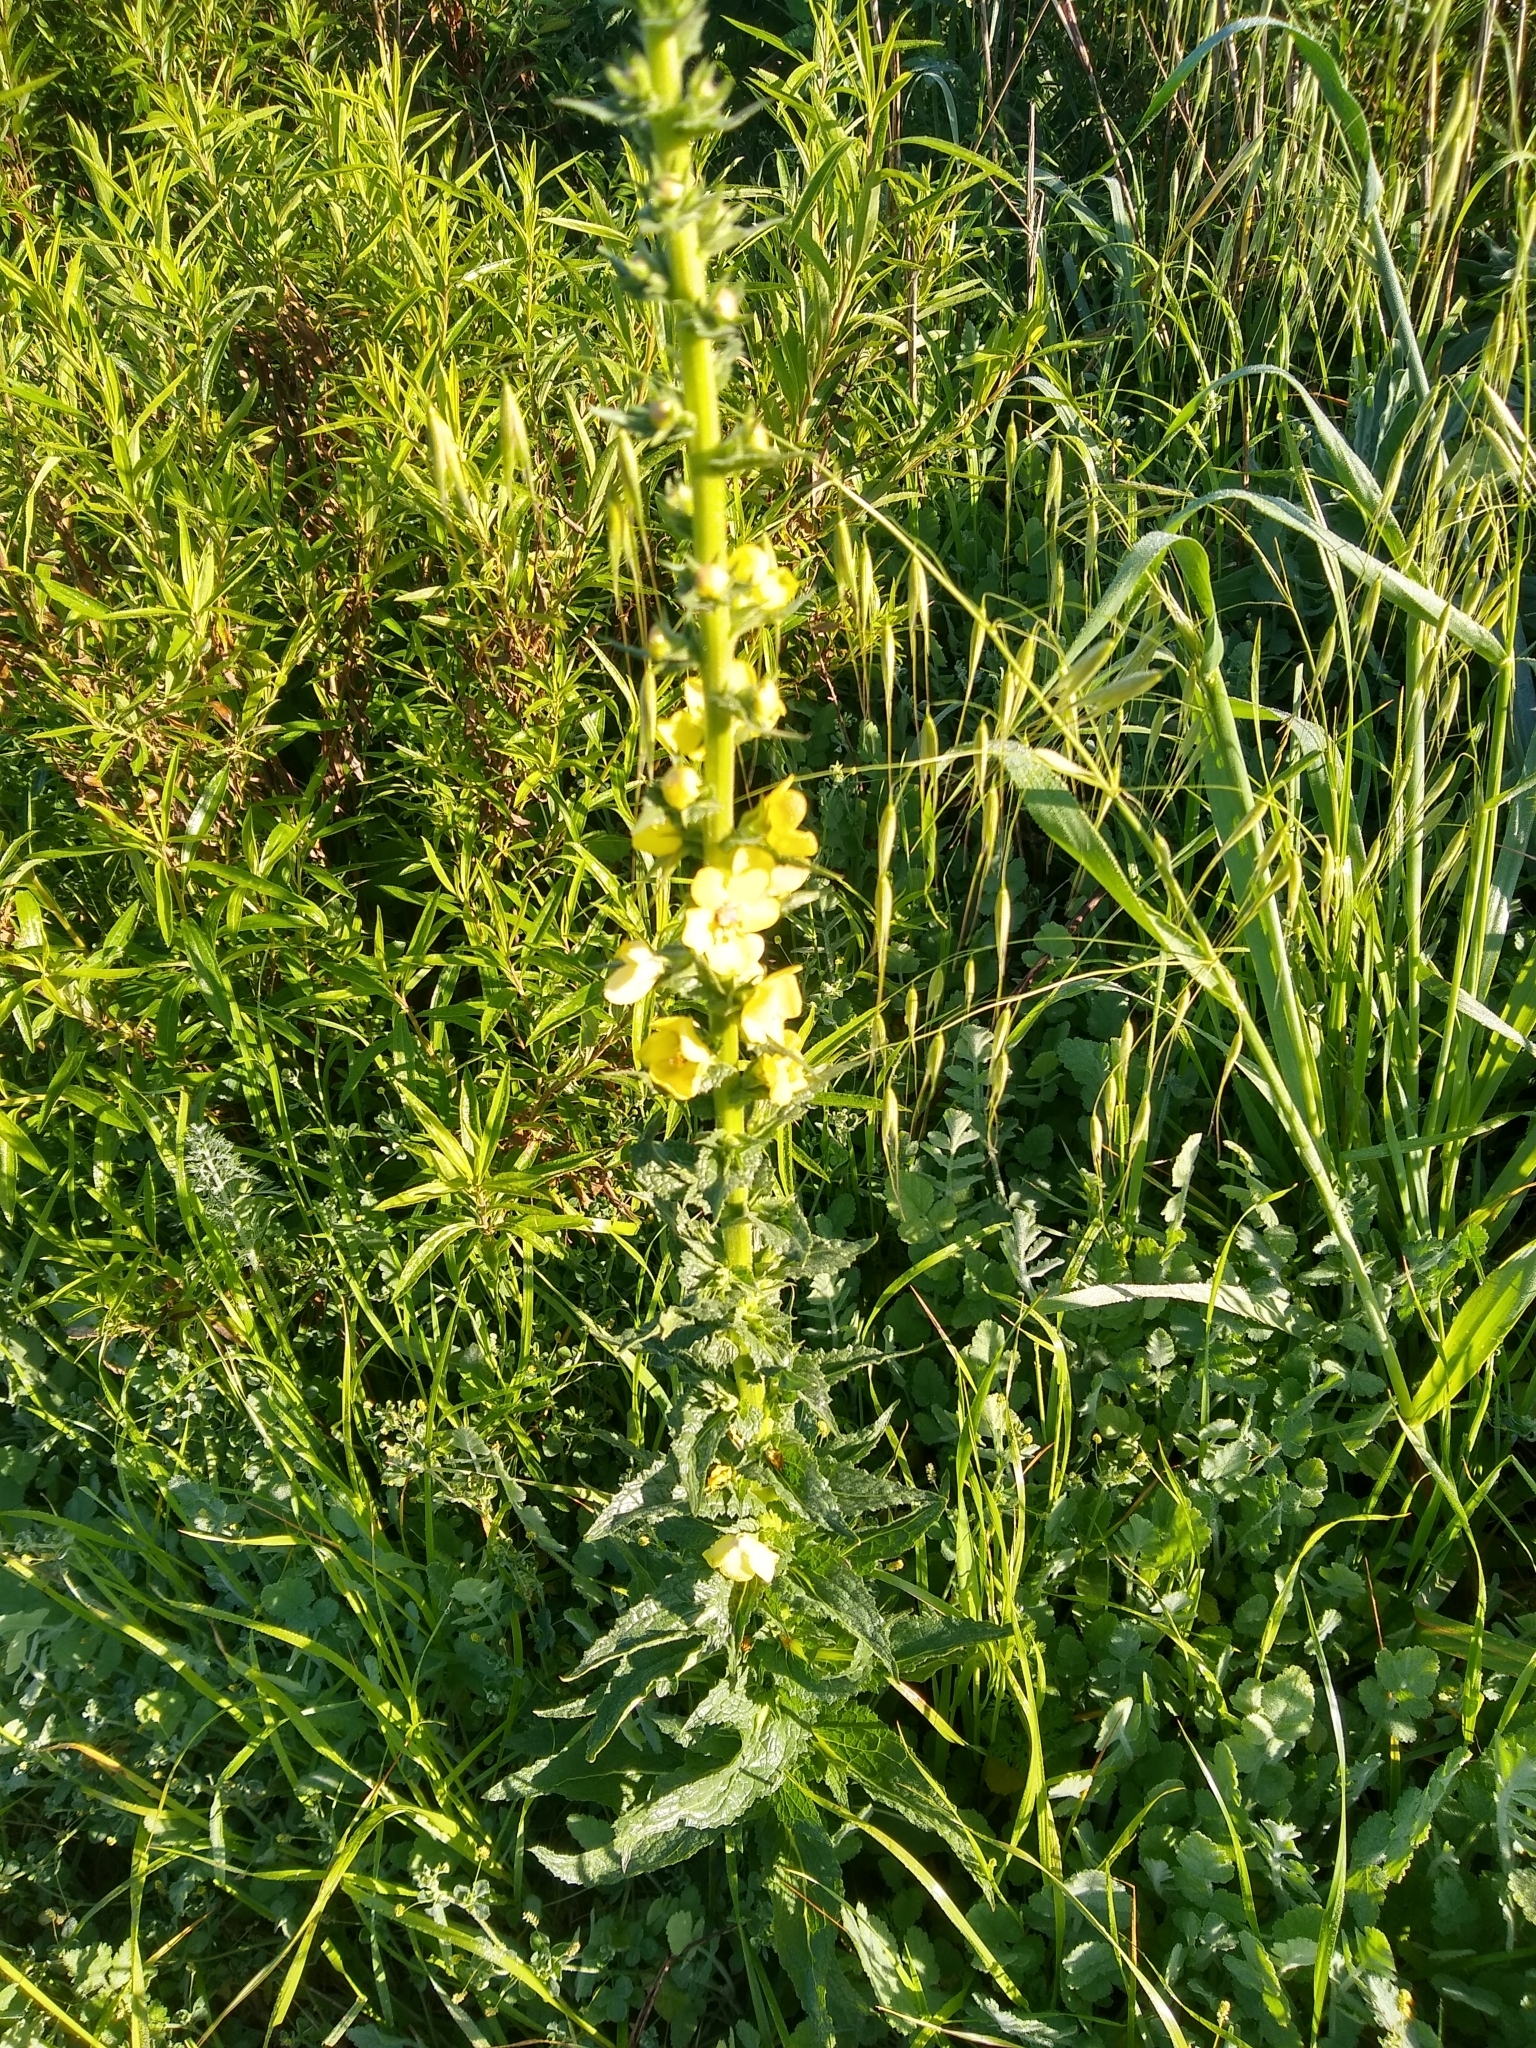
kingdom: Plantae
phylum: Tracheophyta
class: Magnoliopsida
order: Lamiales
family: Scrophulariaceae
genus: Verbascum
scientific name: Verbascum virgatum
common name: Twiggy mullein
